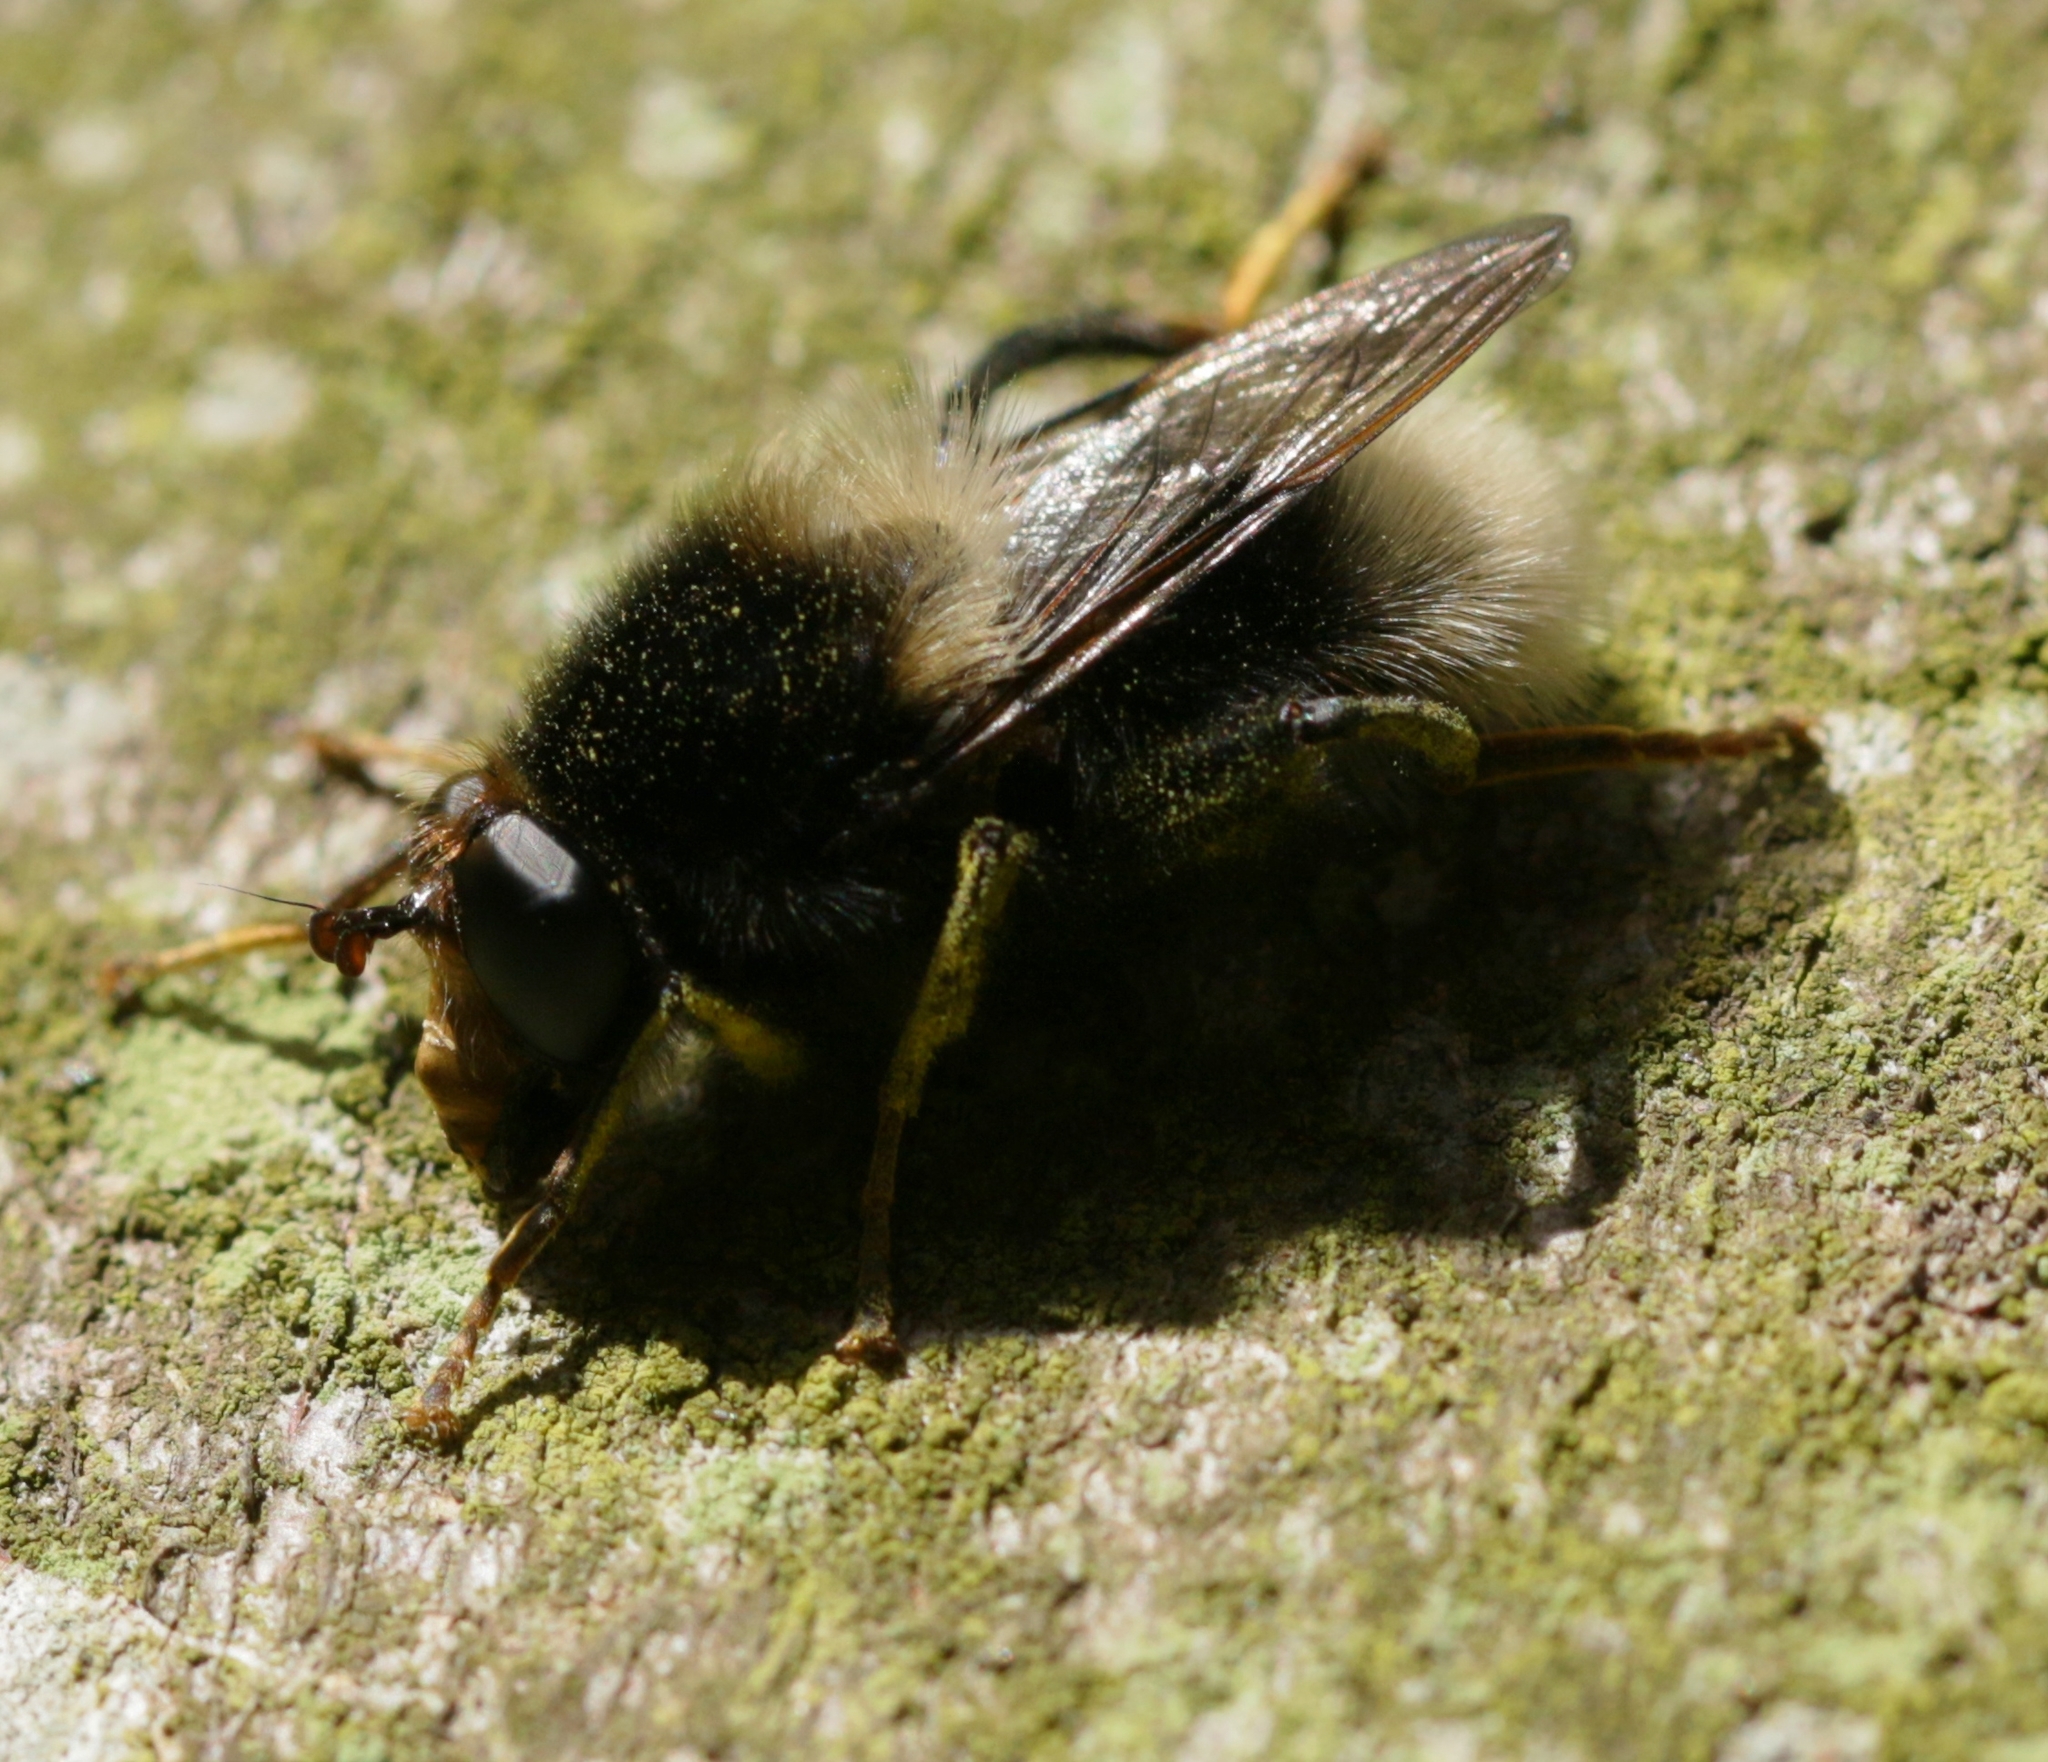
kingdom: Animalia
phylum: Arthropoda
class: Insecta
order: Diptera
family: Syrphidae
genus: Criorhina
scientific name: Criorhina ranunculi
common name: Large bear hoverfly
